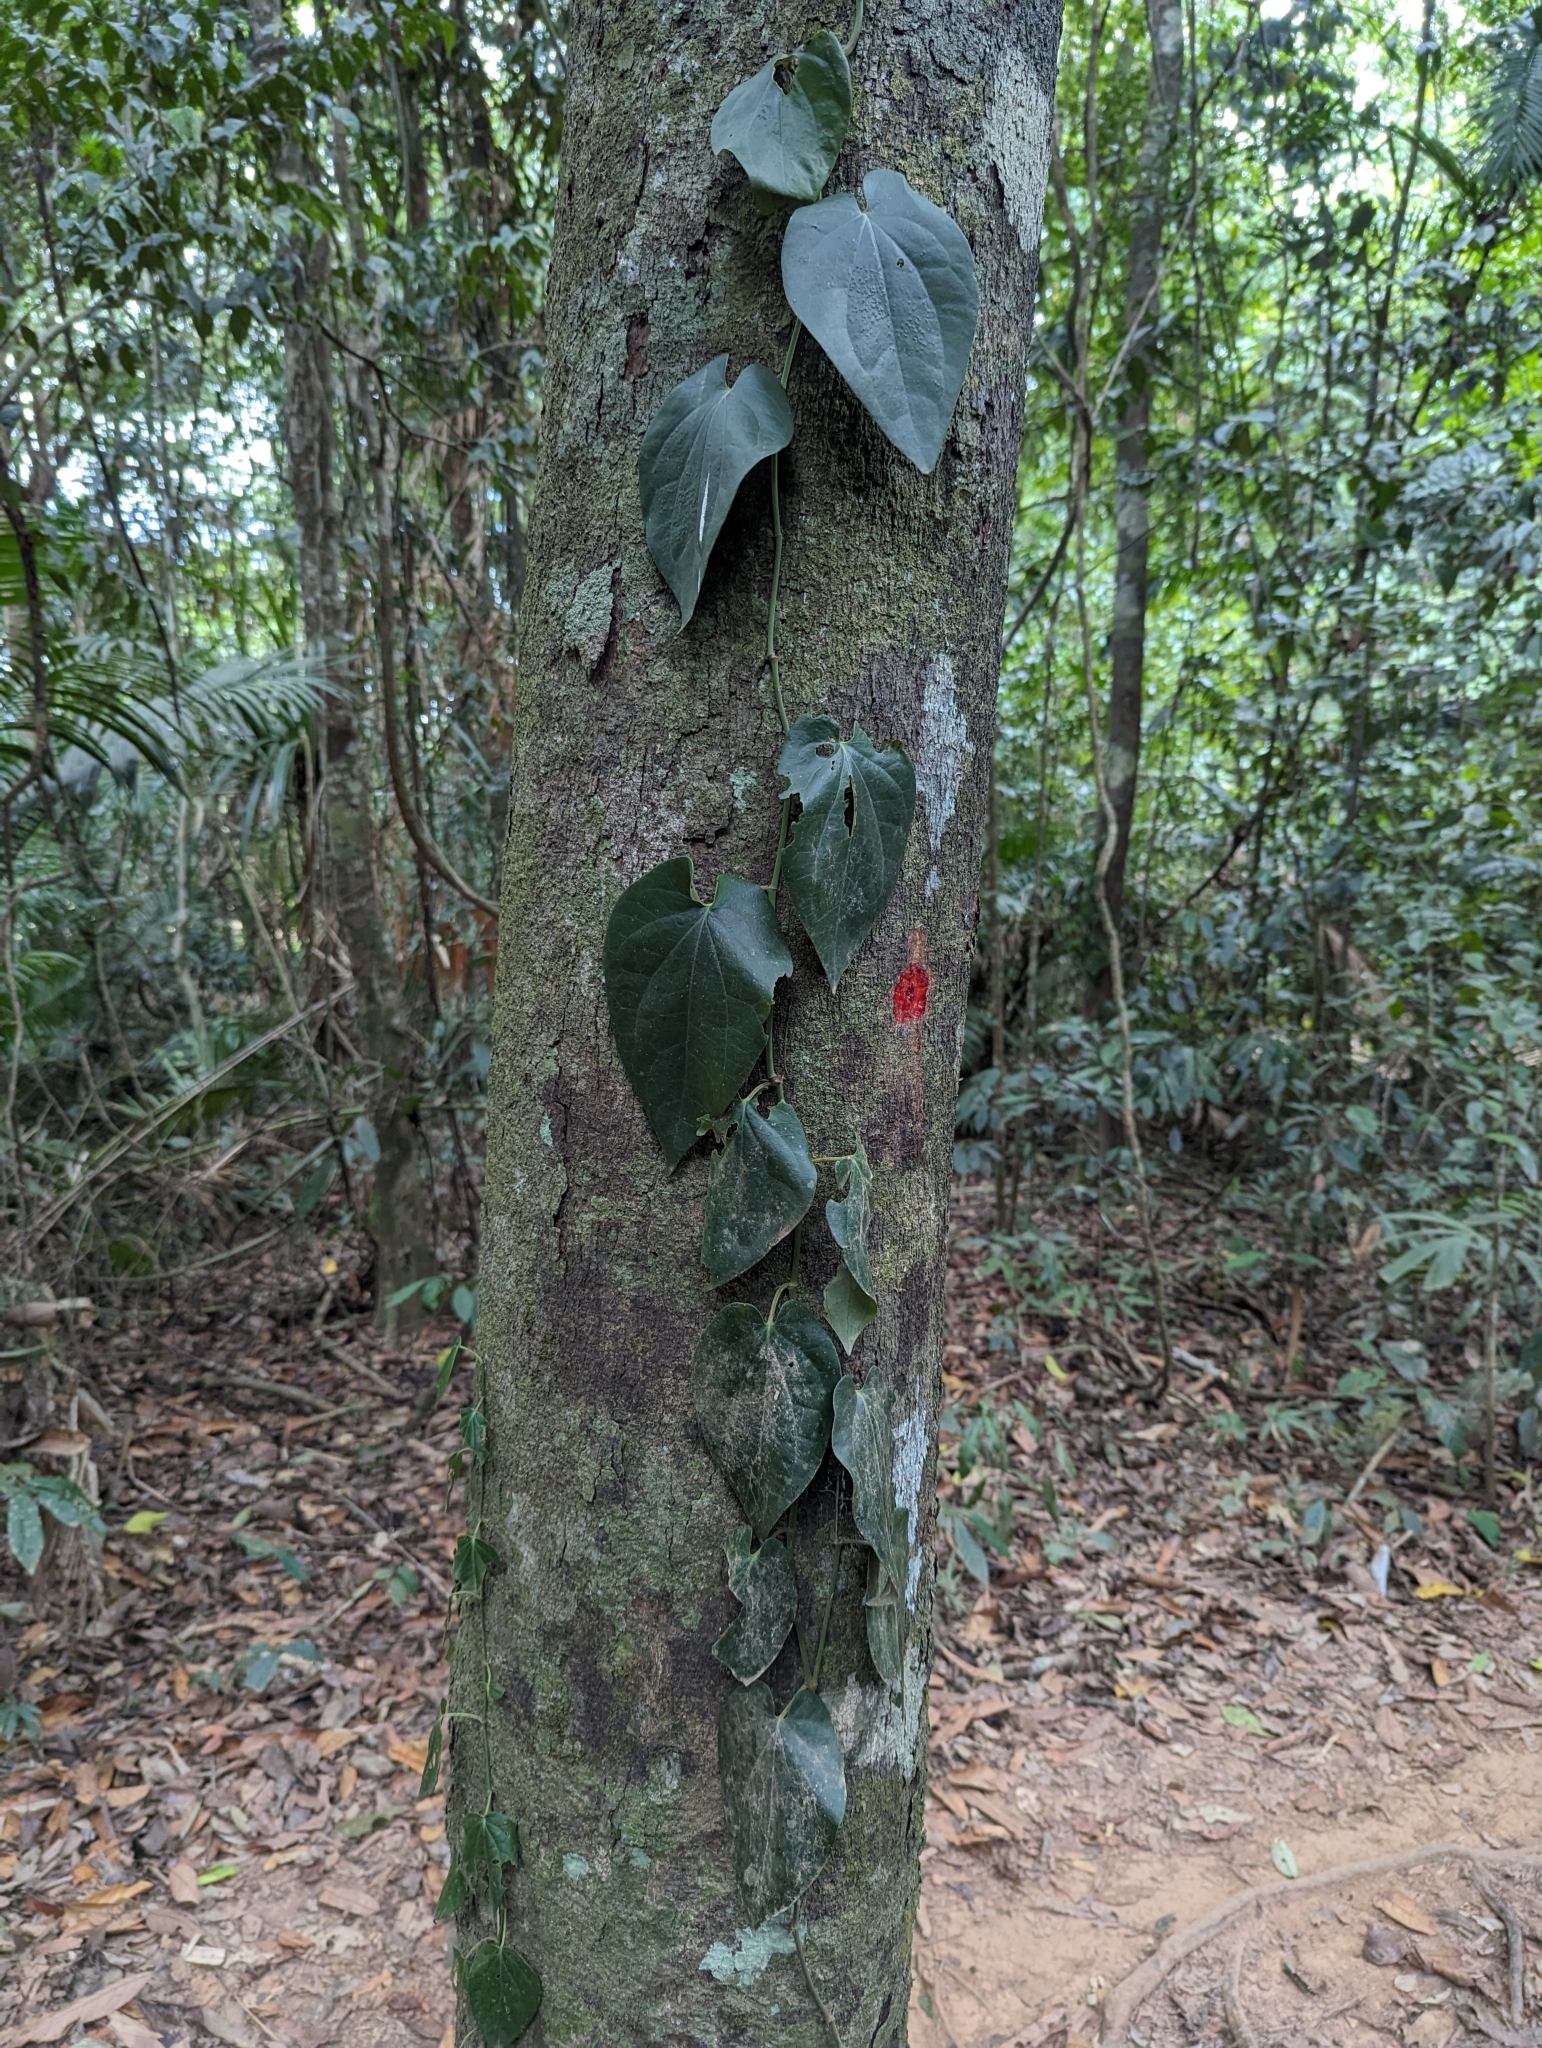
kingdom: Plantae
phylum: Tracheophyta
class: Magnoliopsida
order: Piperales
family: Piperaceae
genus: Piper
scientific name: Piper hederaceum
